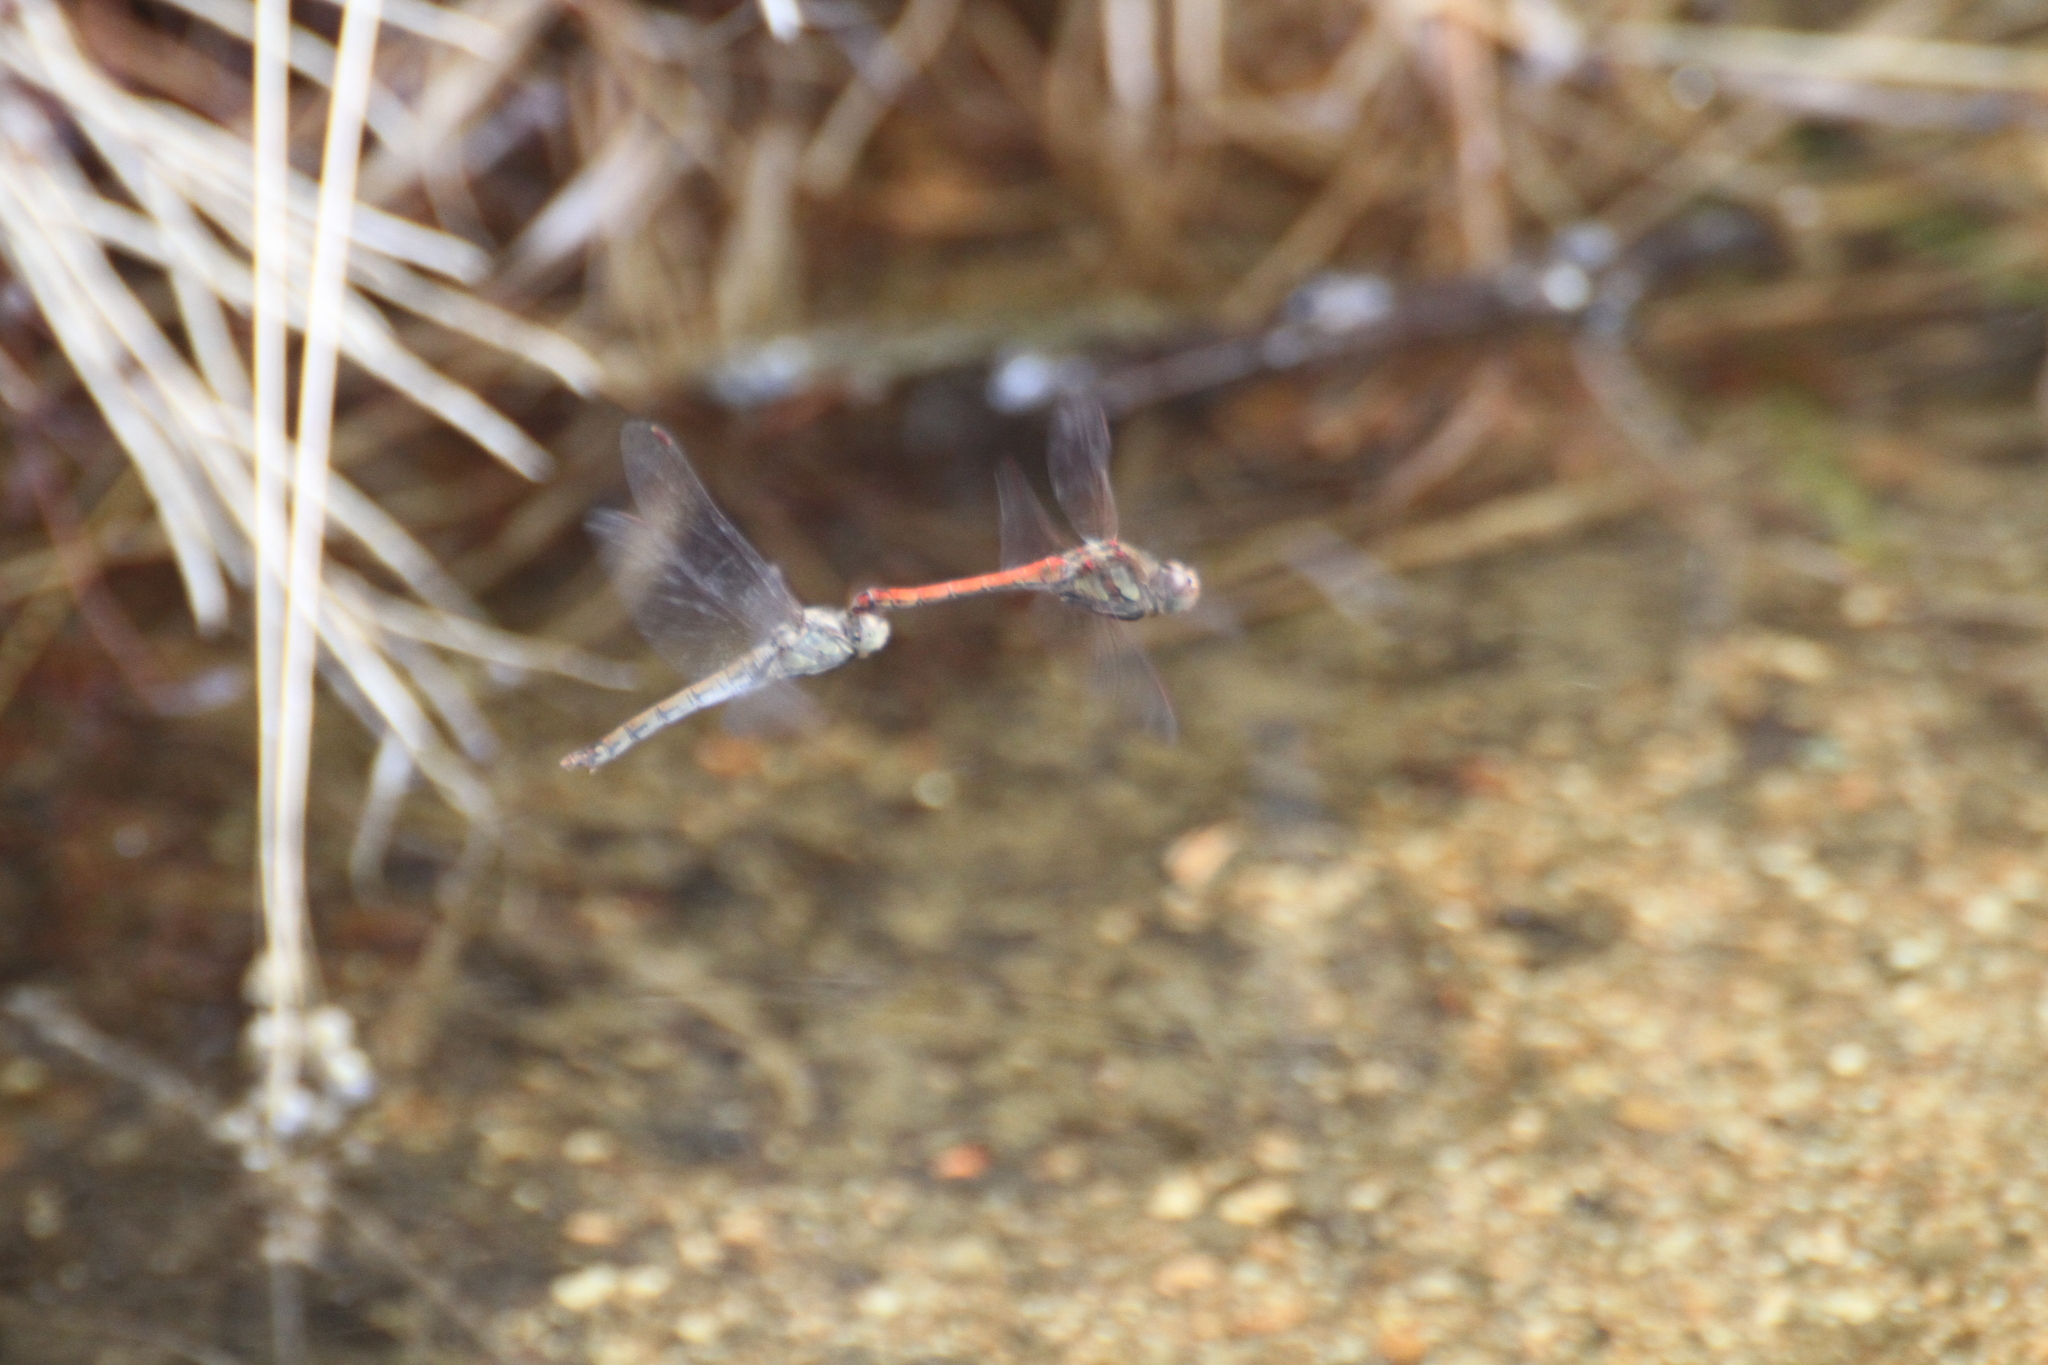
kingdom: Animalia
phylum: Arthropoda
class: Insecta
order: Odonata
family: Libellulidae
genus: Sympetrum
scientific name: Sympetrum striolatum
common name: Common darter
